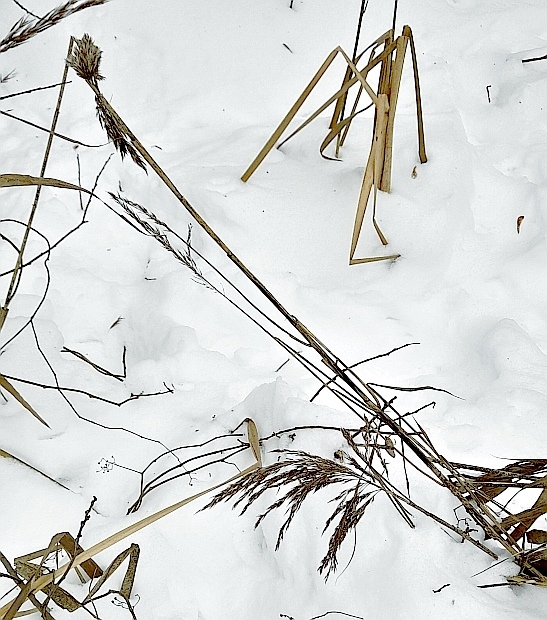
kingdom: Plantae
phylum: Tracheophyta
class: Liliopsida
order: Poales
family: Poaceae
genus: Phragmites
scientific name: Phragmites australis
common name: Common reed
